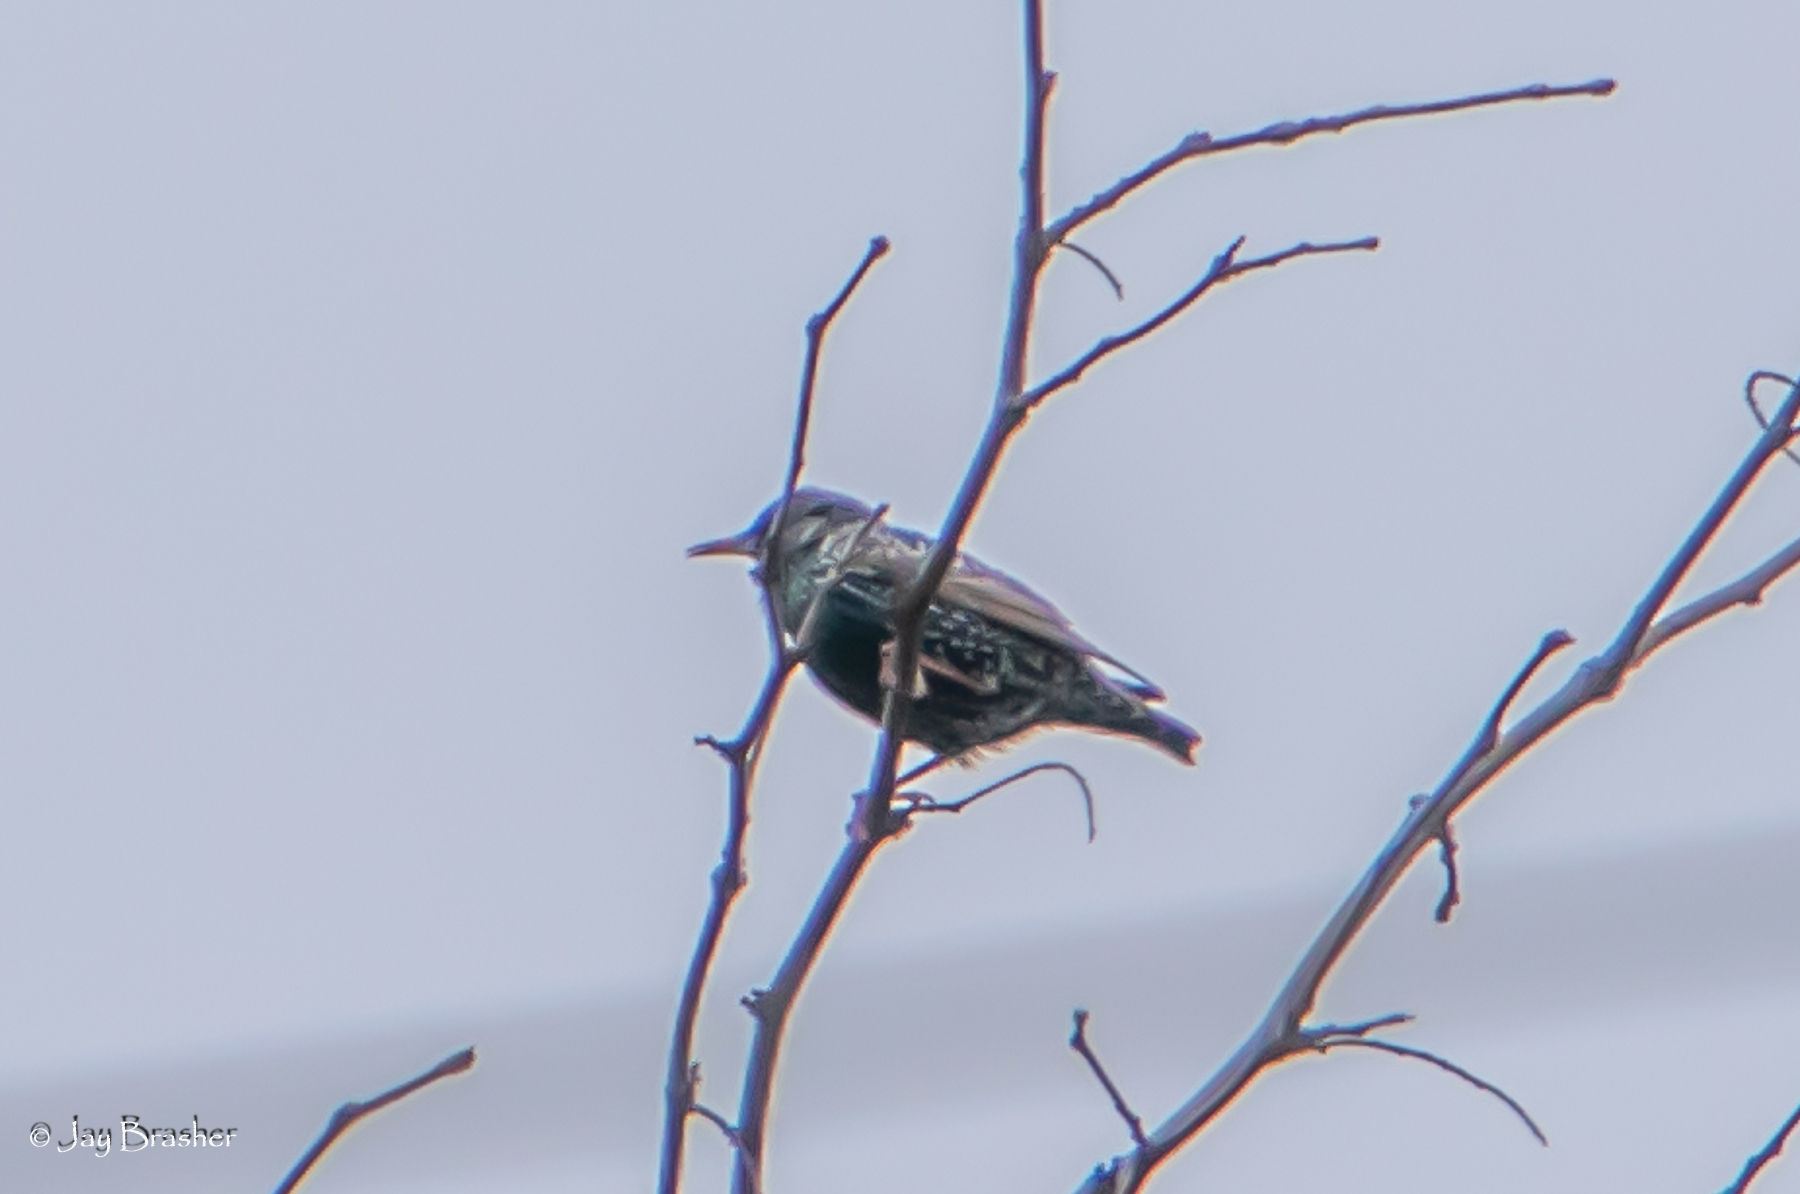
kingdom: Animalia
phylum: Chordata
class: Aves
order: Passeriformes
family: Sturnidae
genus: Sturnus
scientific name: Sturnus vulgaris
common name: Common starling
